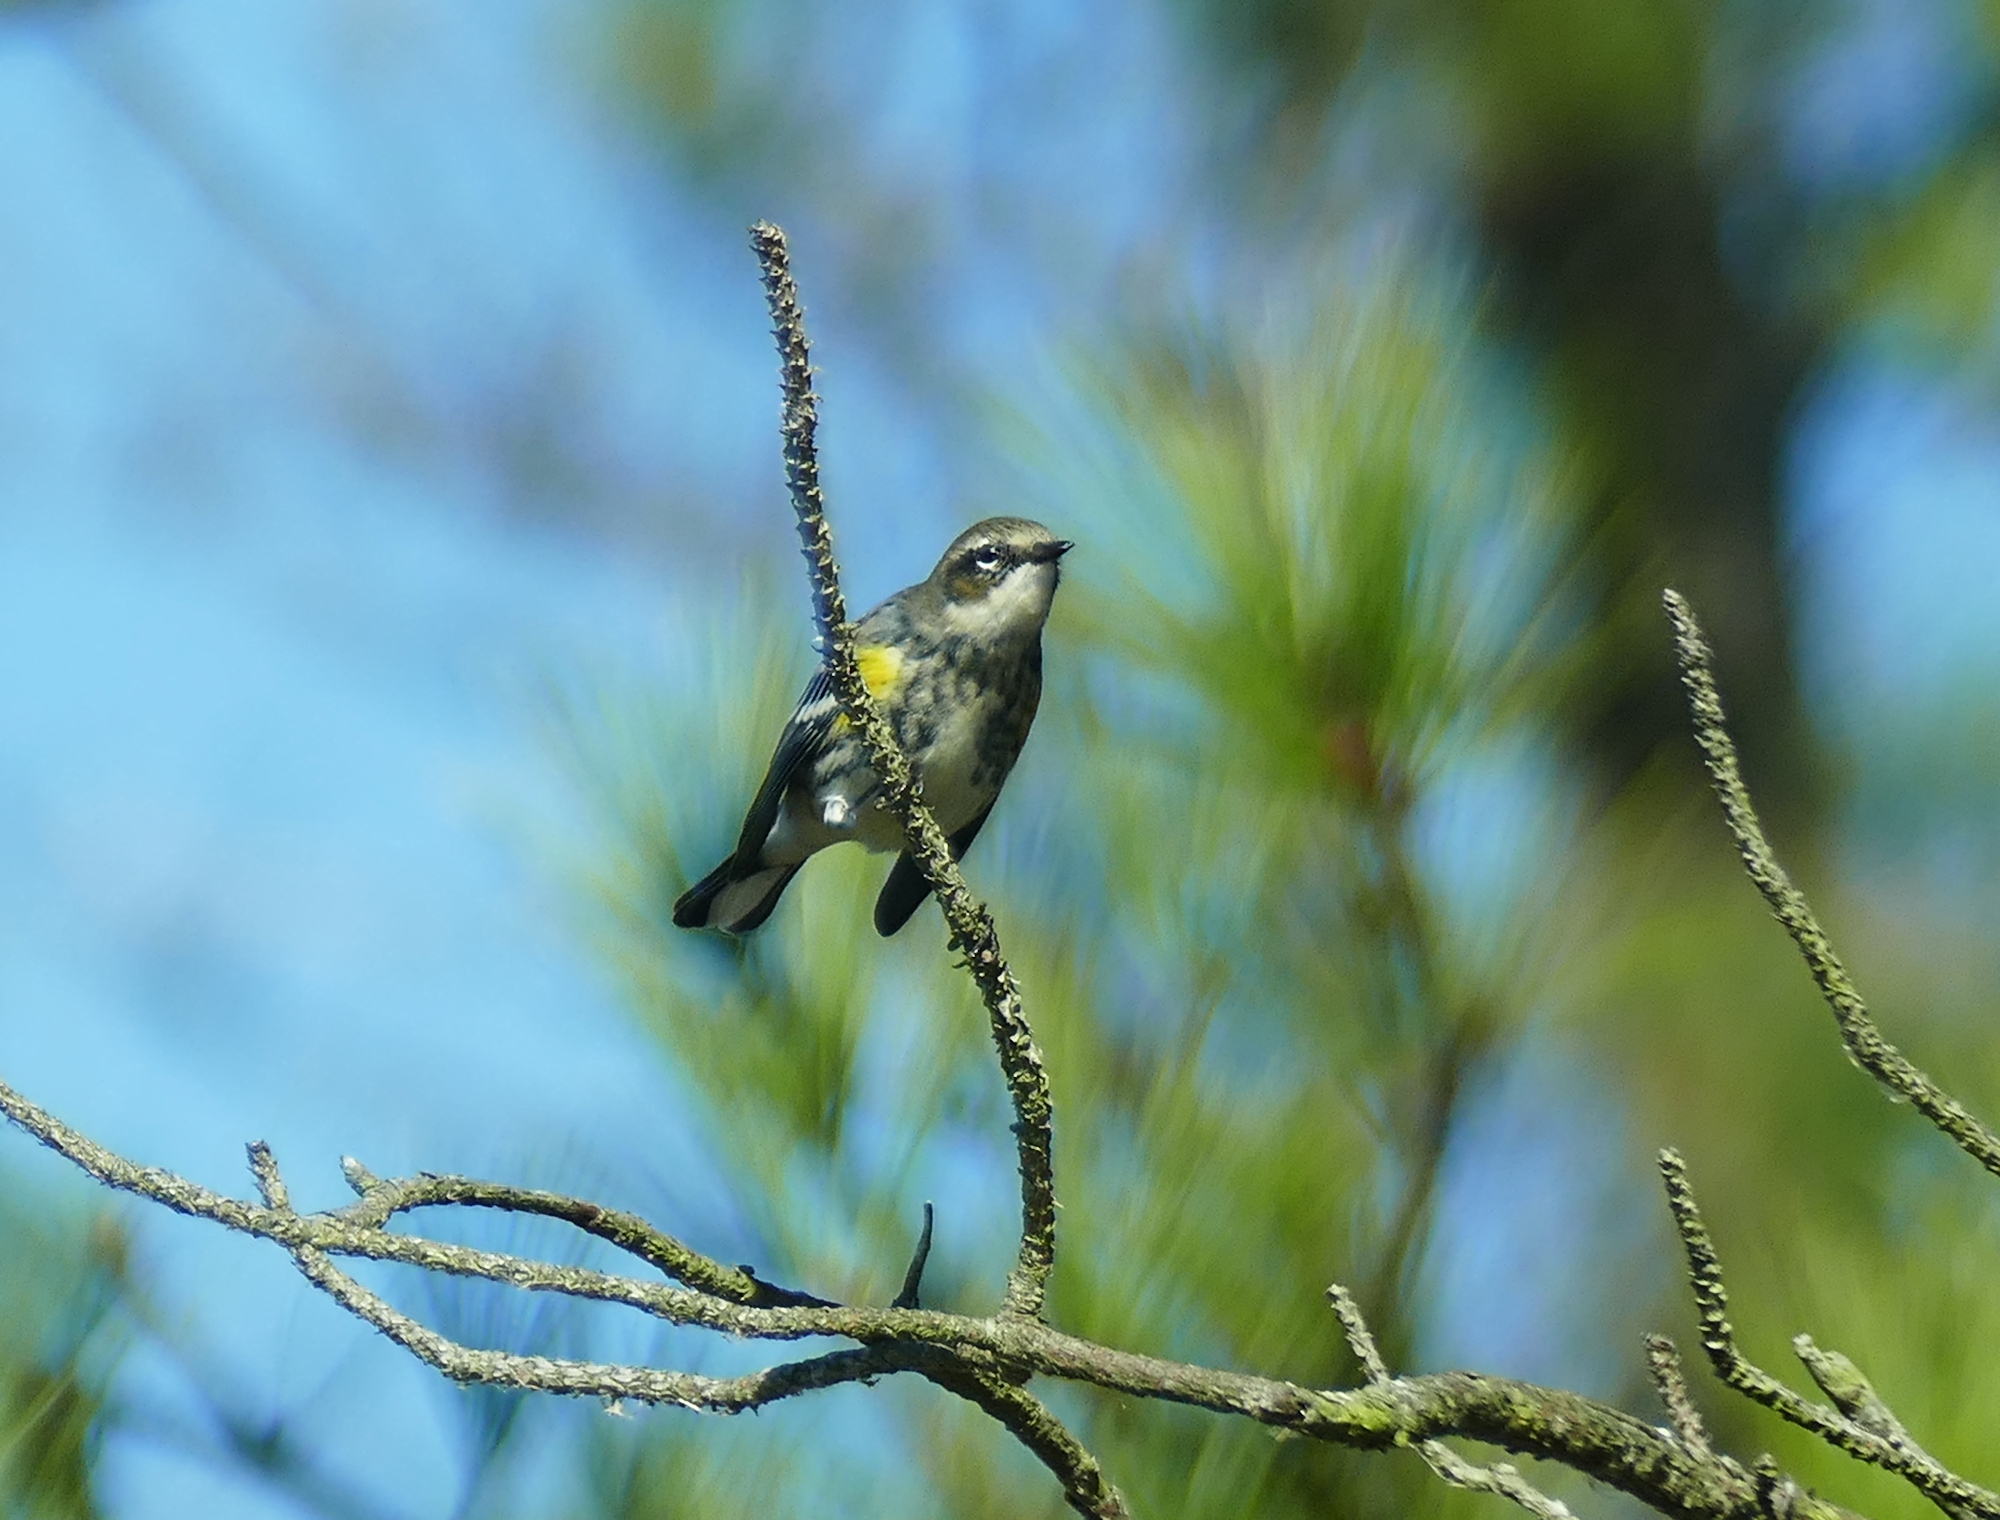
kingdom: Animalia
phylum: Chordata
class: Aves
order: Passeriformes
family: Parulidae
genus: Setophaga
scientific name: Setophaga coronata
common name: Myrtle warbler
